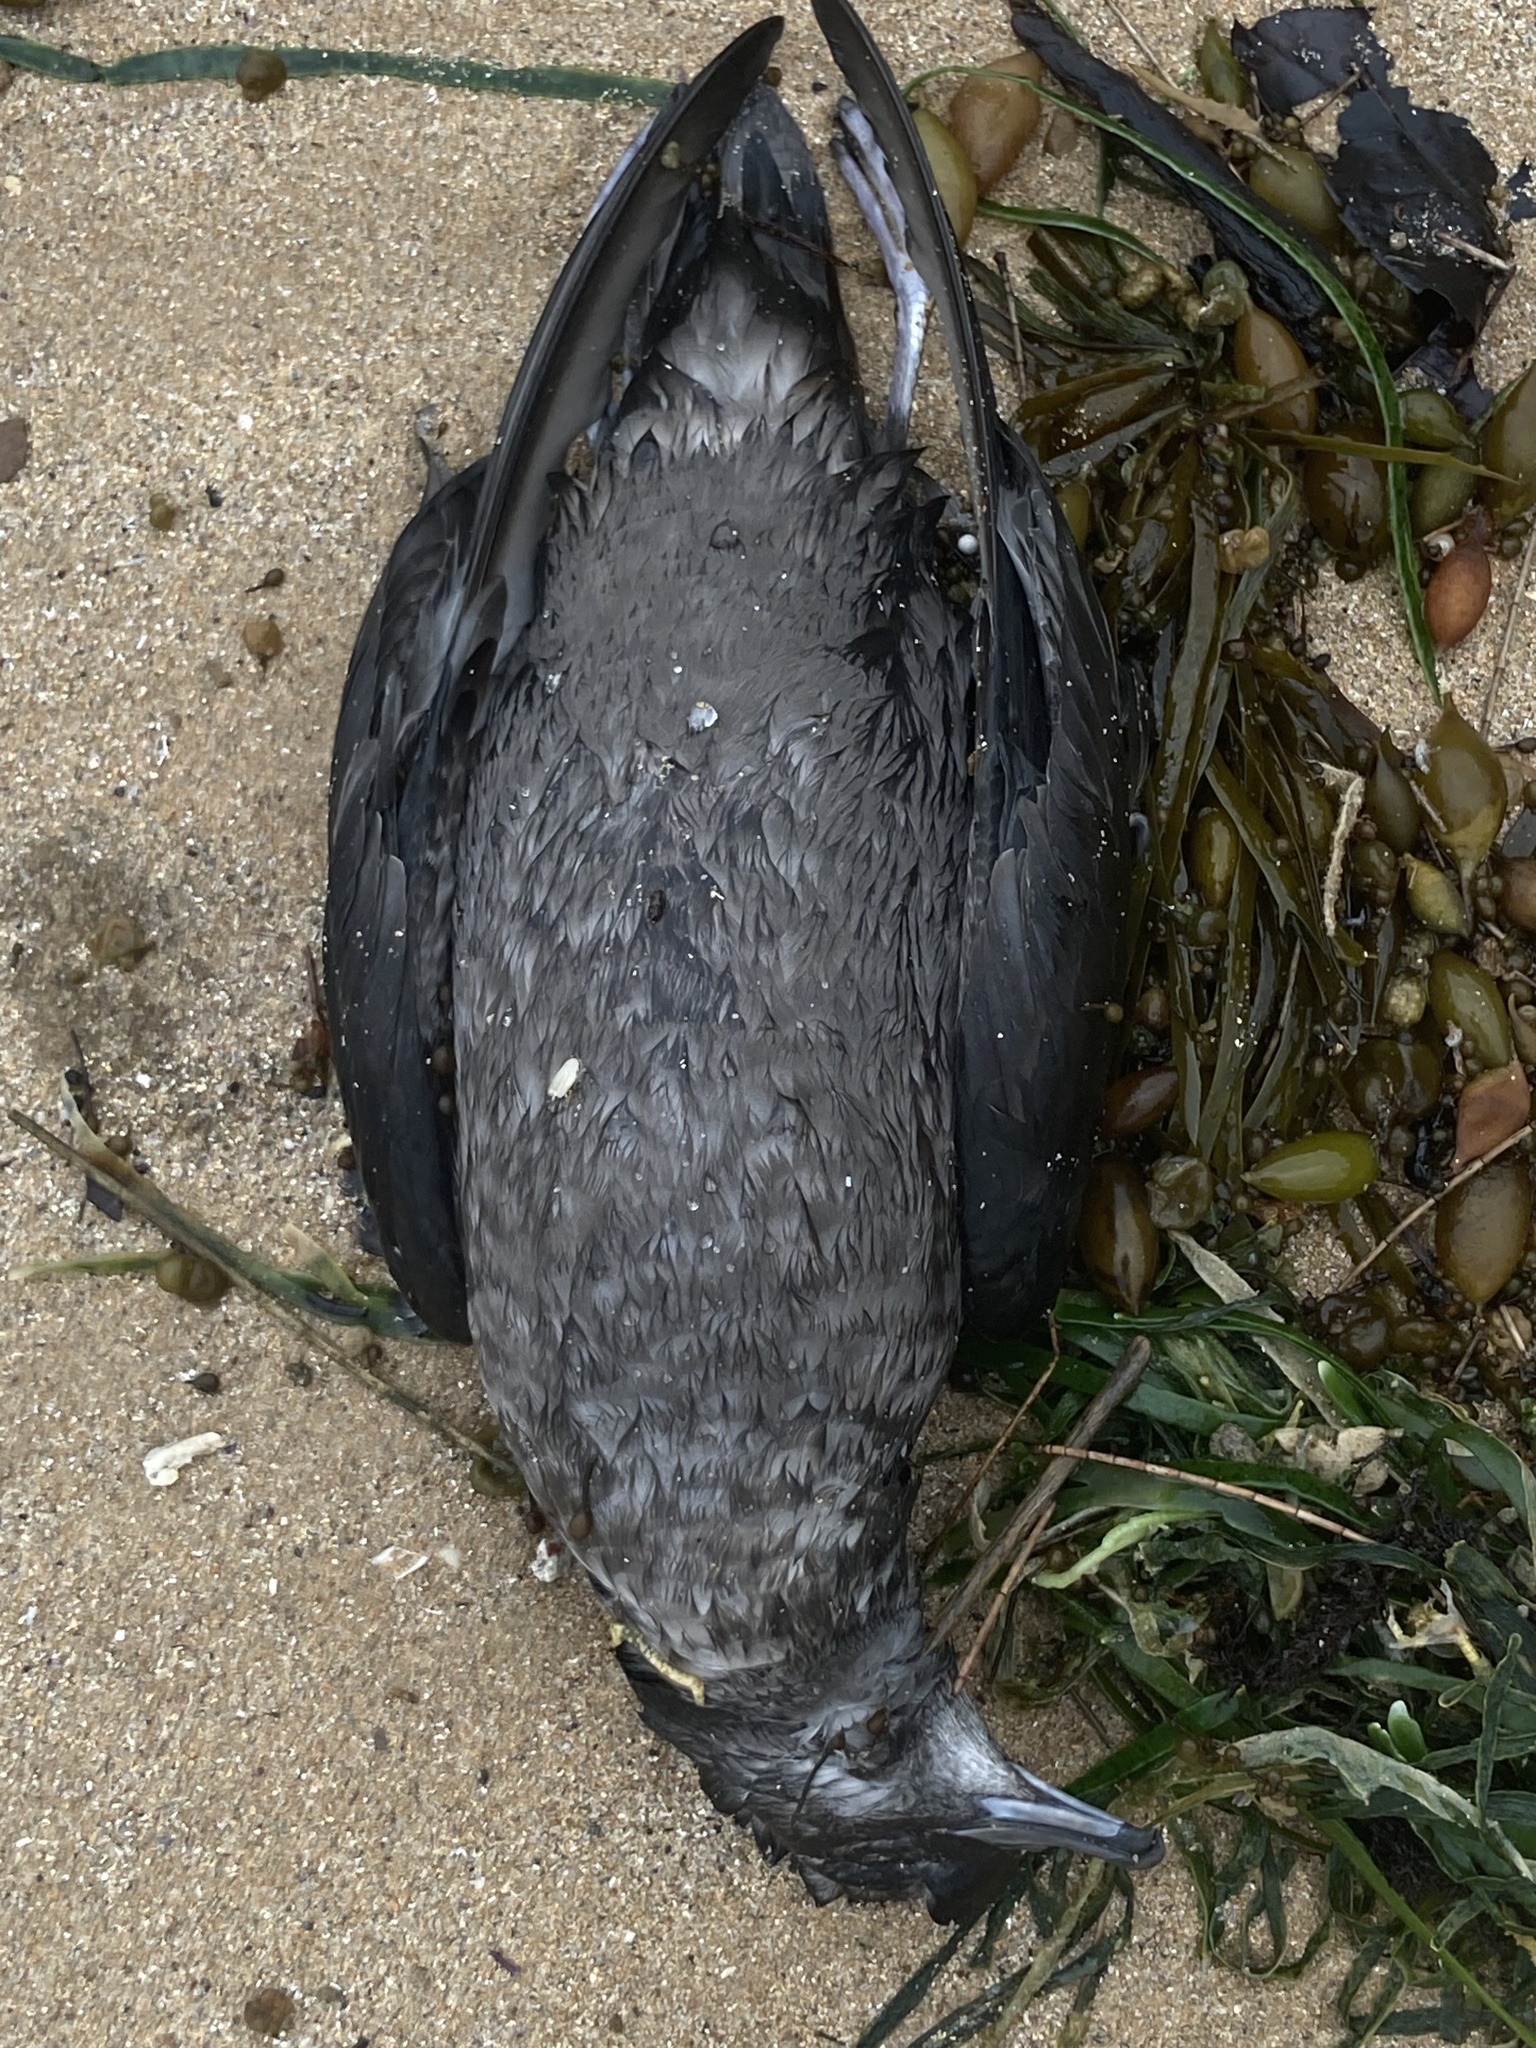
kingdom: Animalia
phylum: Chordata
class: Aves
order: Procellariiformes
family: Procellariidae
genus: Puffinus
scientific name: Puffinus tenuirostris
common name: Short-tailed shearwater
